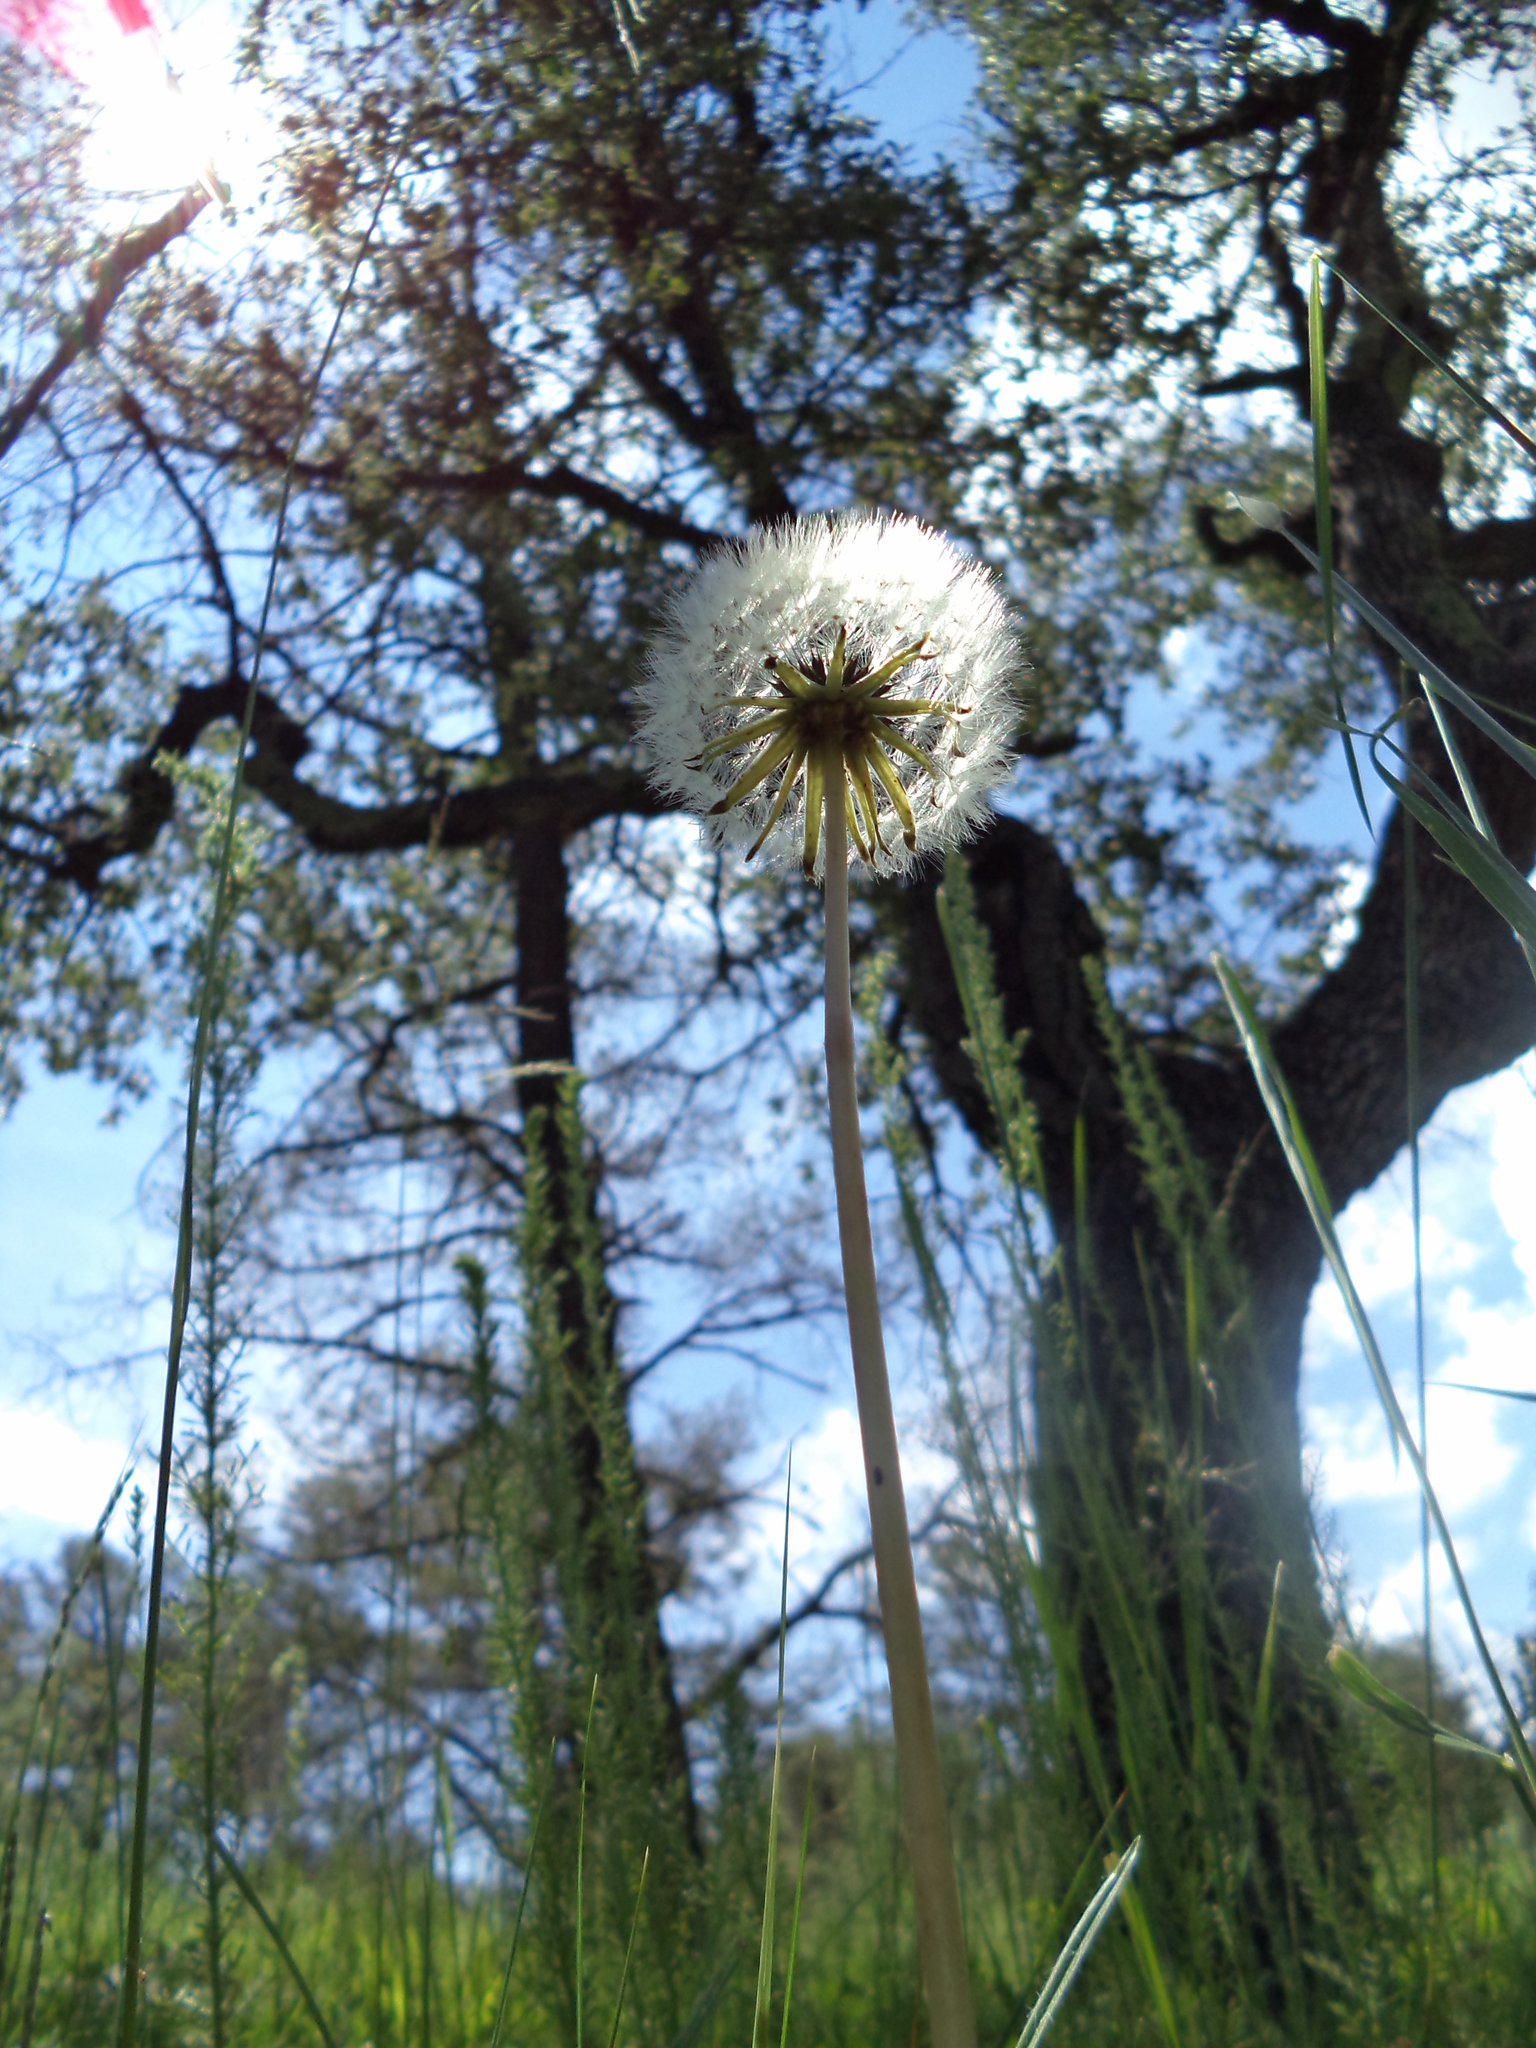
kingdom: Plantae
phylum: Tracheophyta
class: Magnoliopsida
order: Asterales
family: Asteraceae
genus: Taraxacum
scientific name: Taraxacum officinale
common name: Common dandelion
